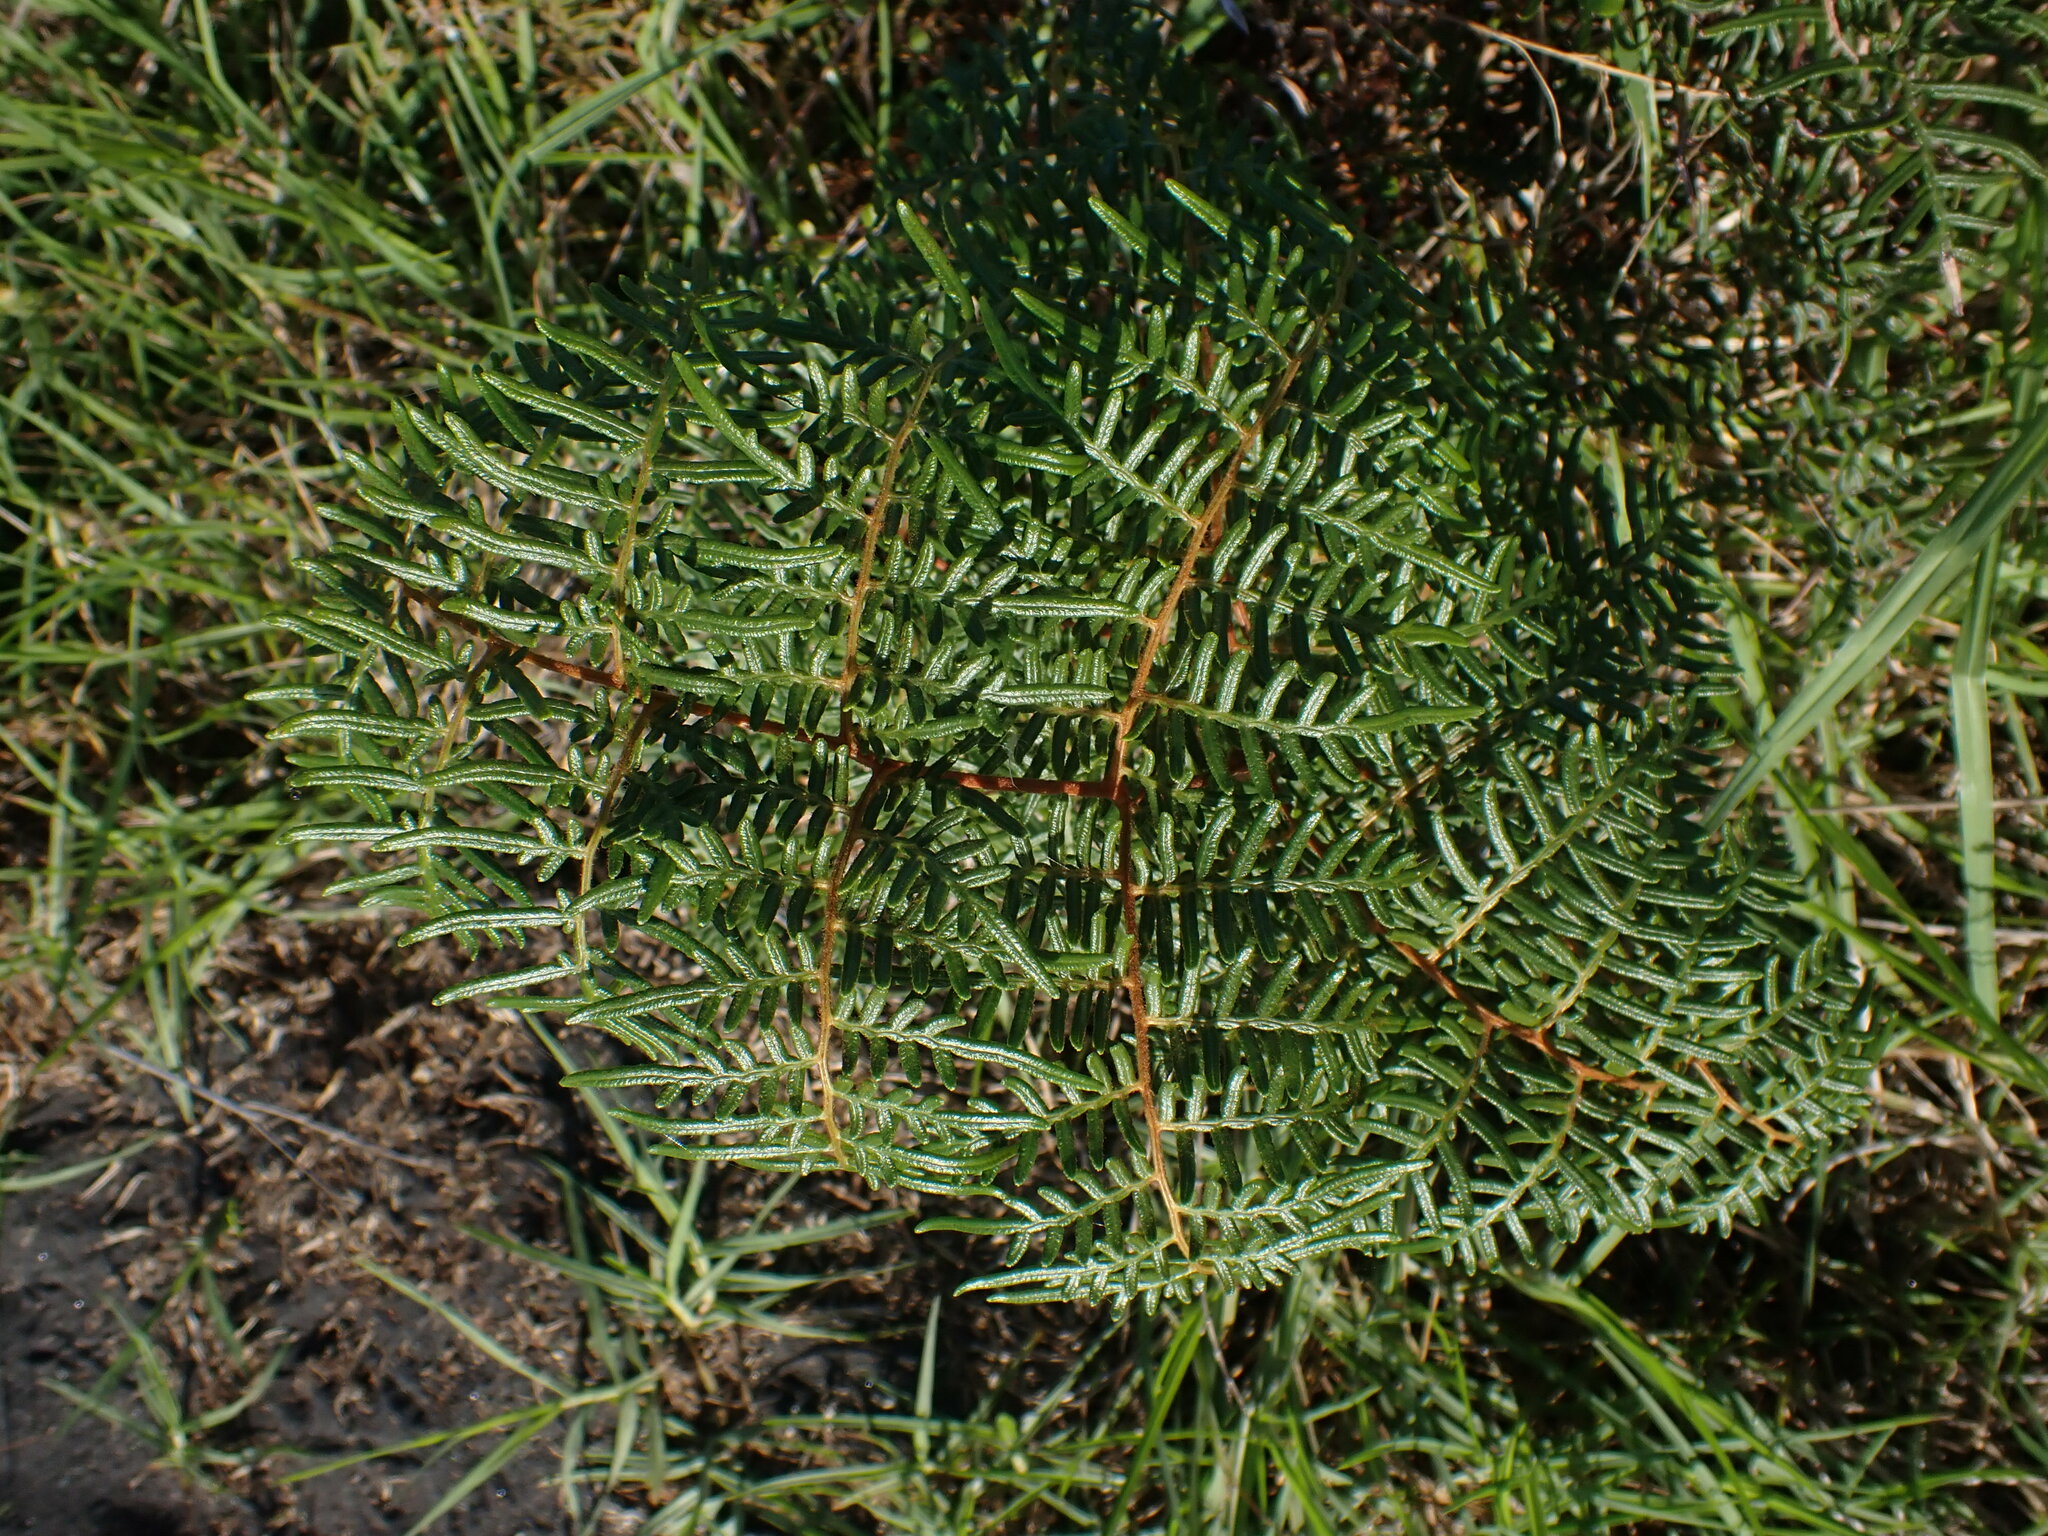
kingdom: Plantae
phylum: Tracheophyta
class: Polypodiopsida
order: Polypodiales
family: Dennstaedtiaceae
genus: Pteridium
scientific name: Pteridium esculentum
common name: Bracken fern
